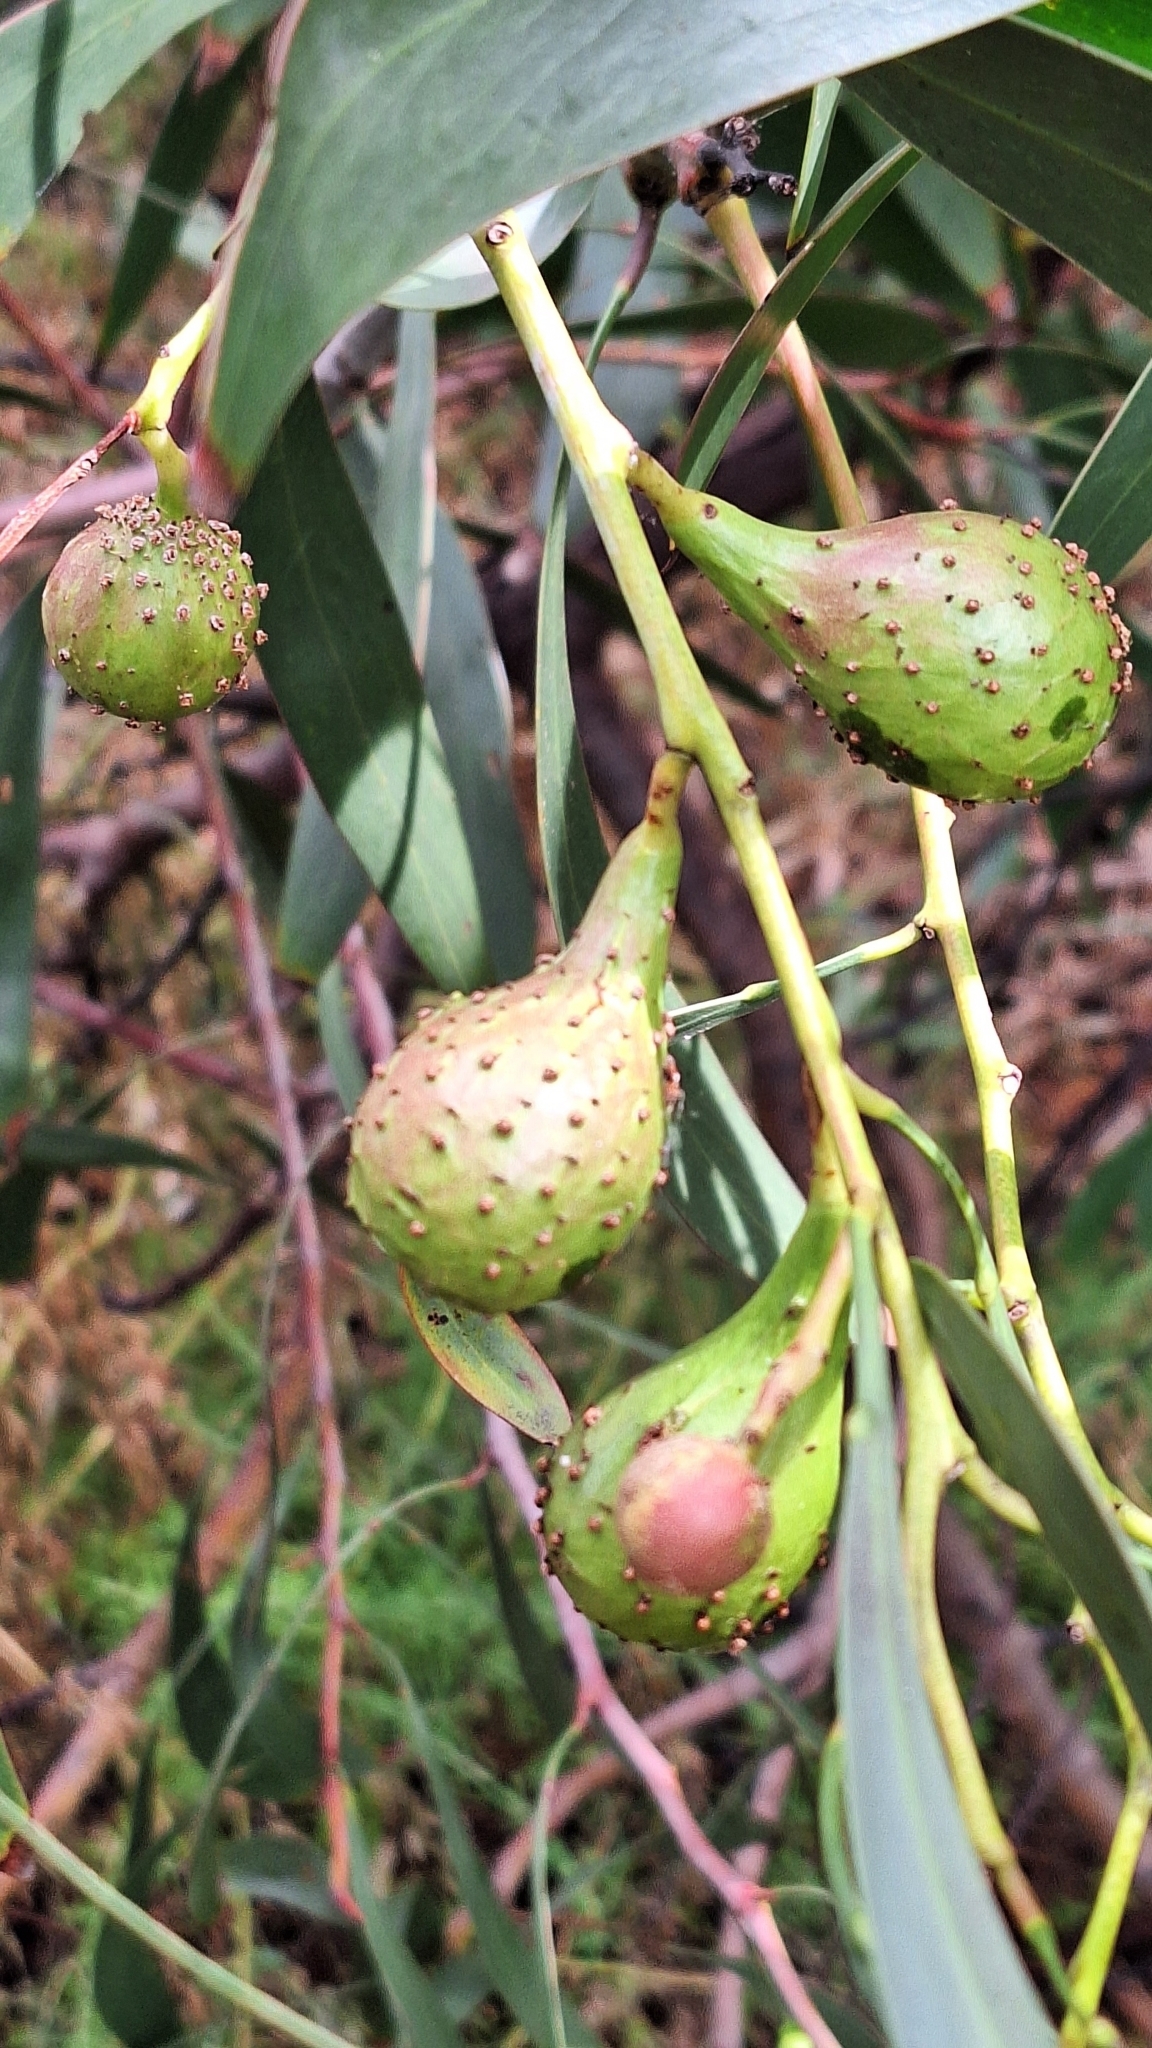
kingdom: Animalia
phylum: Arthropoda
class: Insecta
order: Hymenoptera
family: Pteromalidae
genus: Trichilogaster
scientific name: Trichilogaster signiventris
